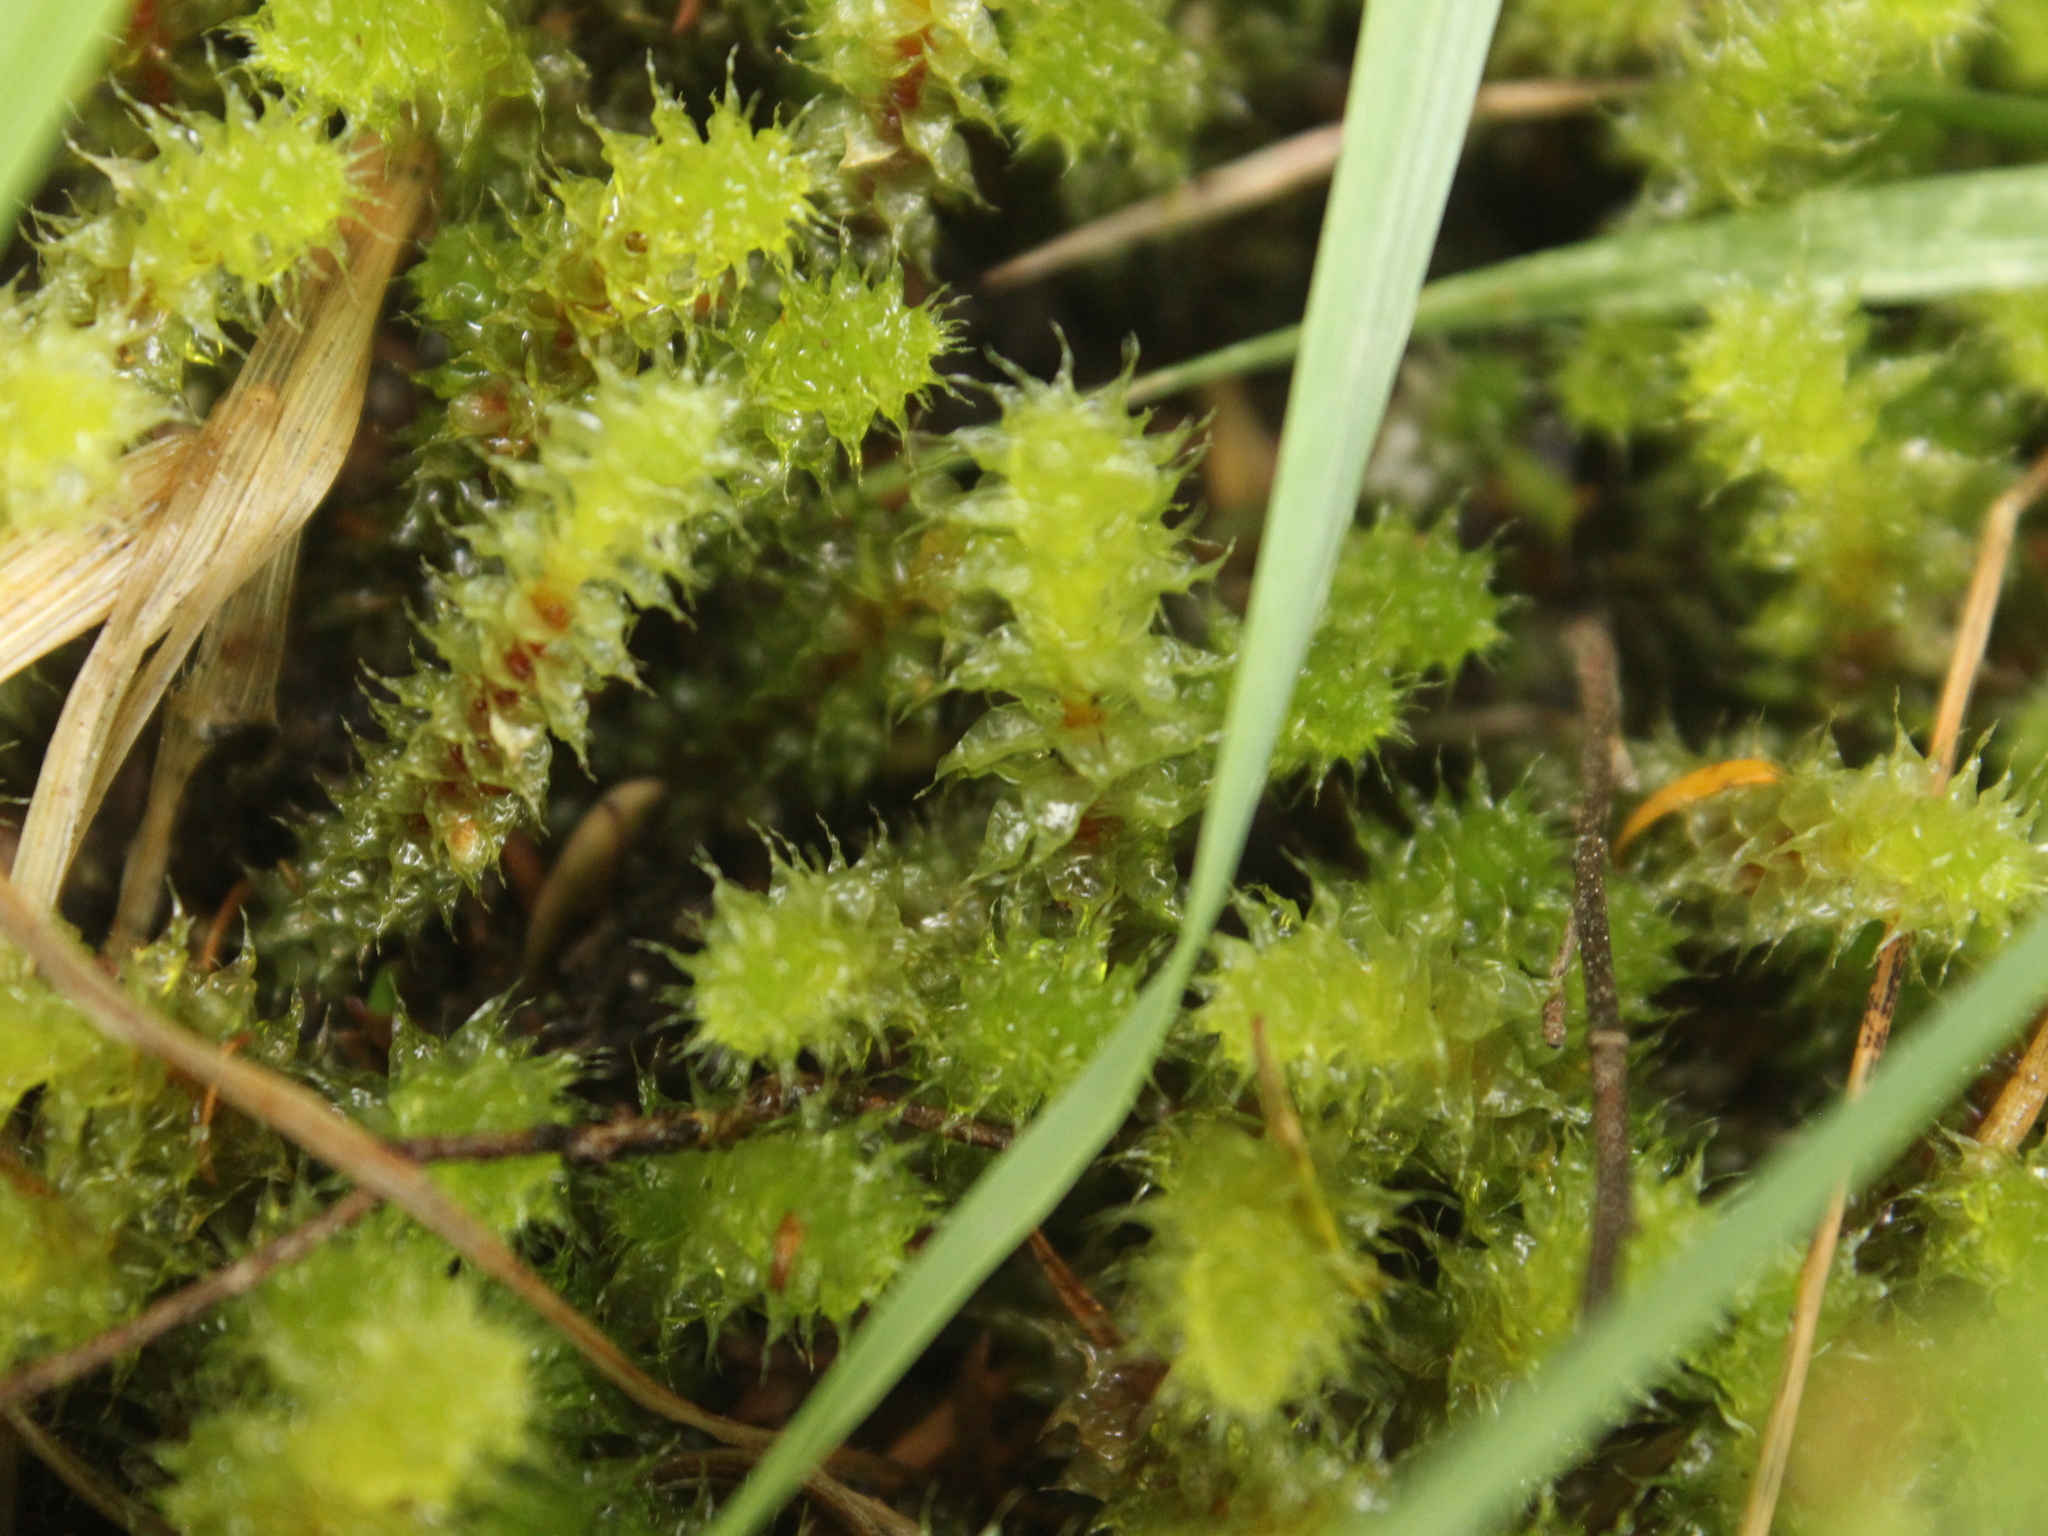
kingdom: Plantae
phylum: Bryophyta
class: Bryopsida
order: Ptychomniales
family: Ptychomniaceae
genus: Ptychomnion
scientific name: Ptychomnion aciculare
